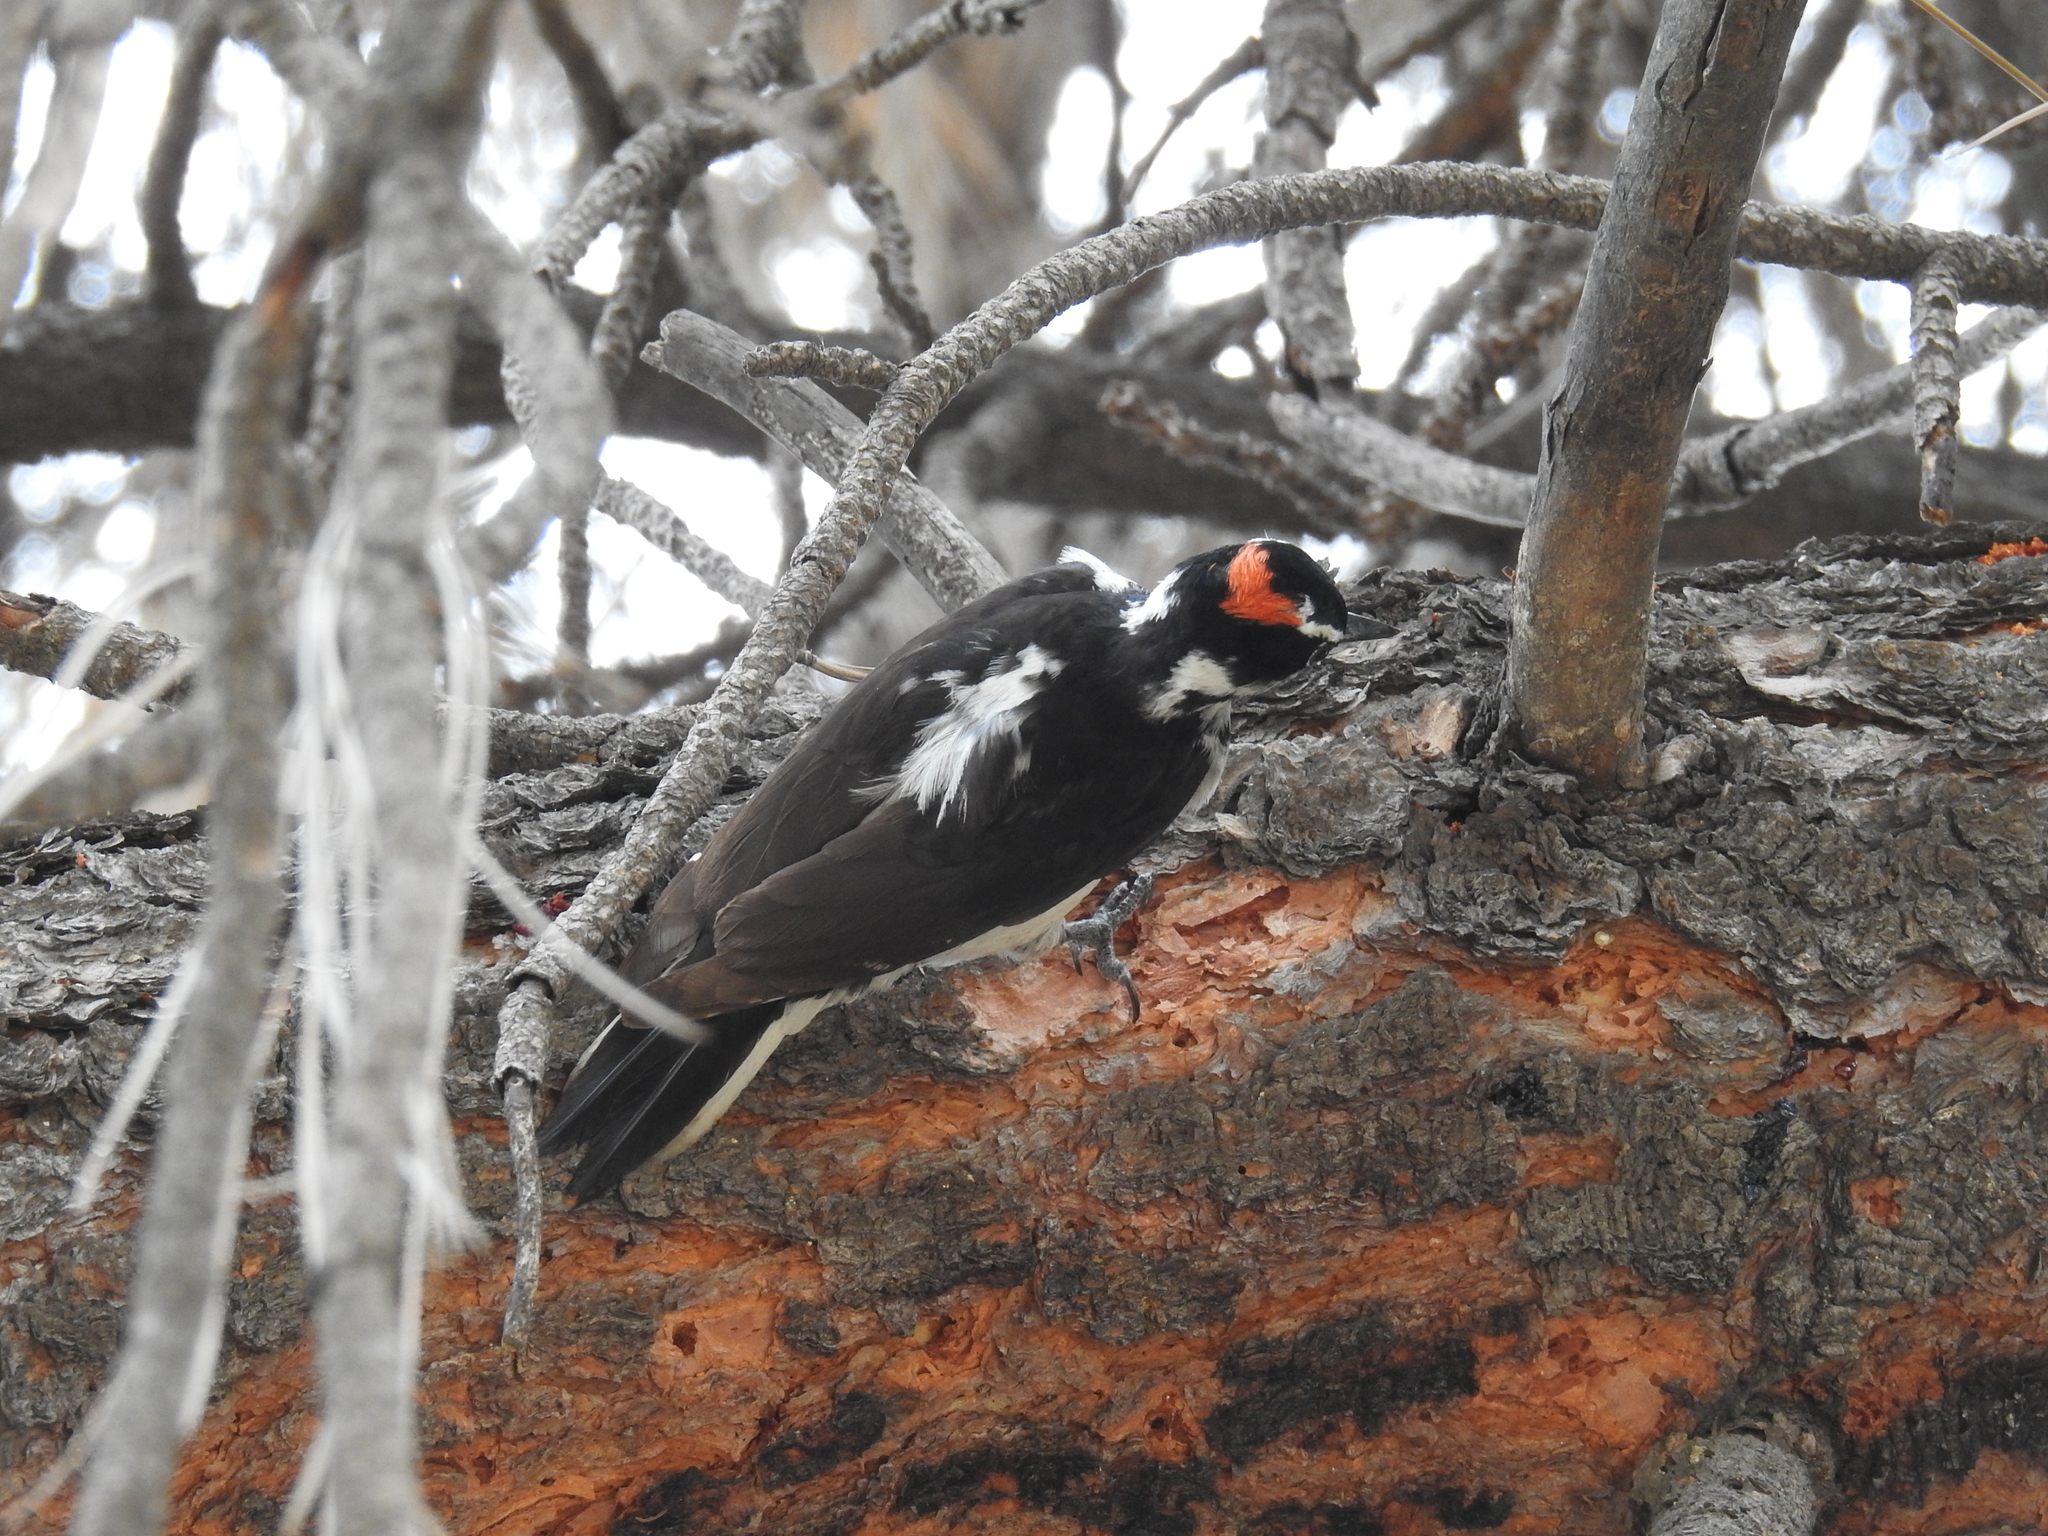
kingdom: Animalia
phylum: Chordata
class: Aves
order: Piciformes
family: Picidae
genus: Leuconotopicus
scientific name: Leuconotopicus villosus
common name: Hairy woodpecker
